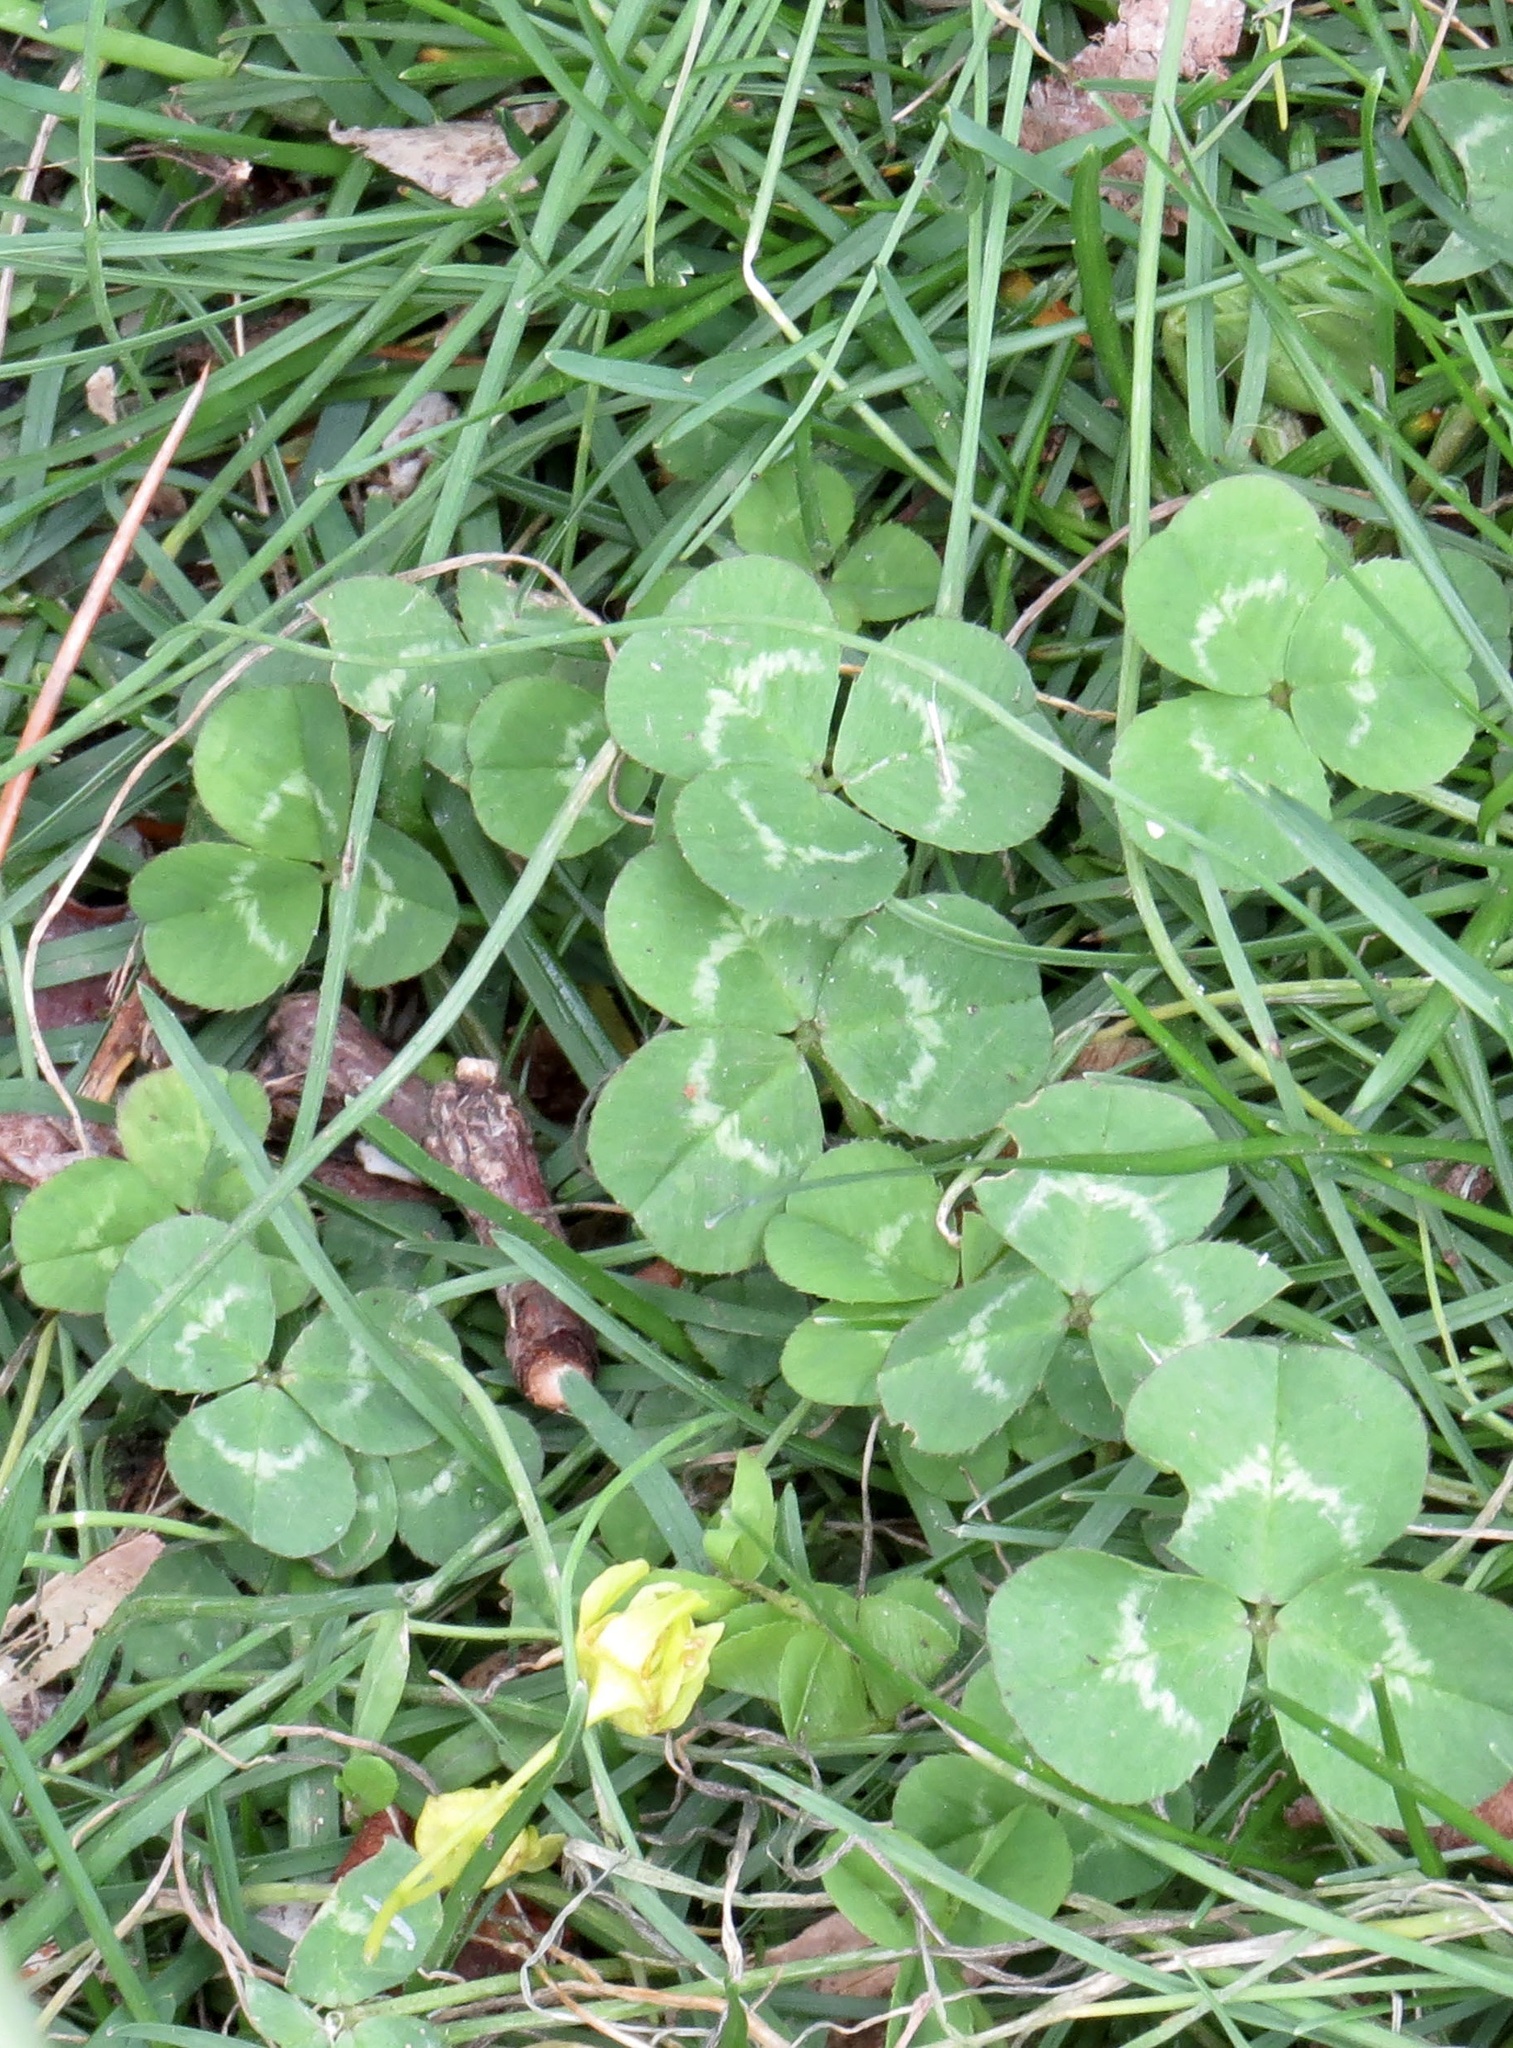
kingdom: Plantae
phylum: Tracheophyta
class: Magnoliopsida
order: Fabales
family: Fabaceae
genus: Trifolium
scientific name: Trifolium repens
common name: White clover
